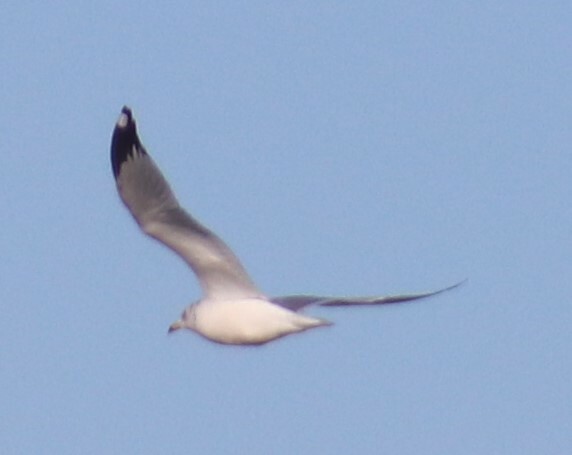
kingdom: Animalia
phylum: Chordata
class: Aves
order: Charadriiformes
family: Laridae
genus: Larus
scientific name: Larus delawarensis
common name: Ring-billed gull
